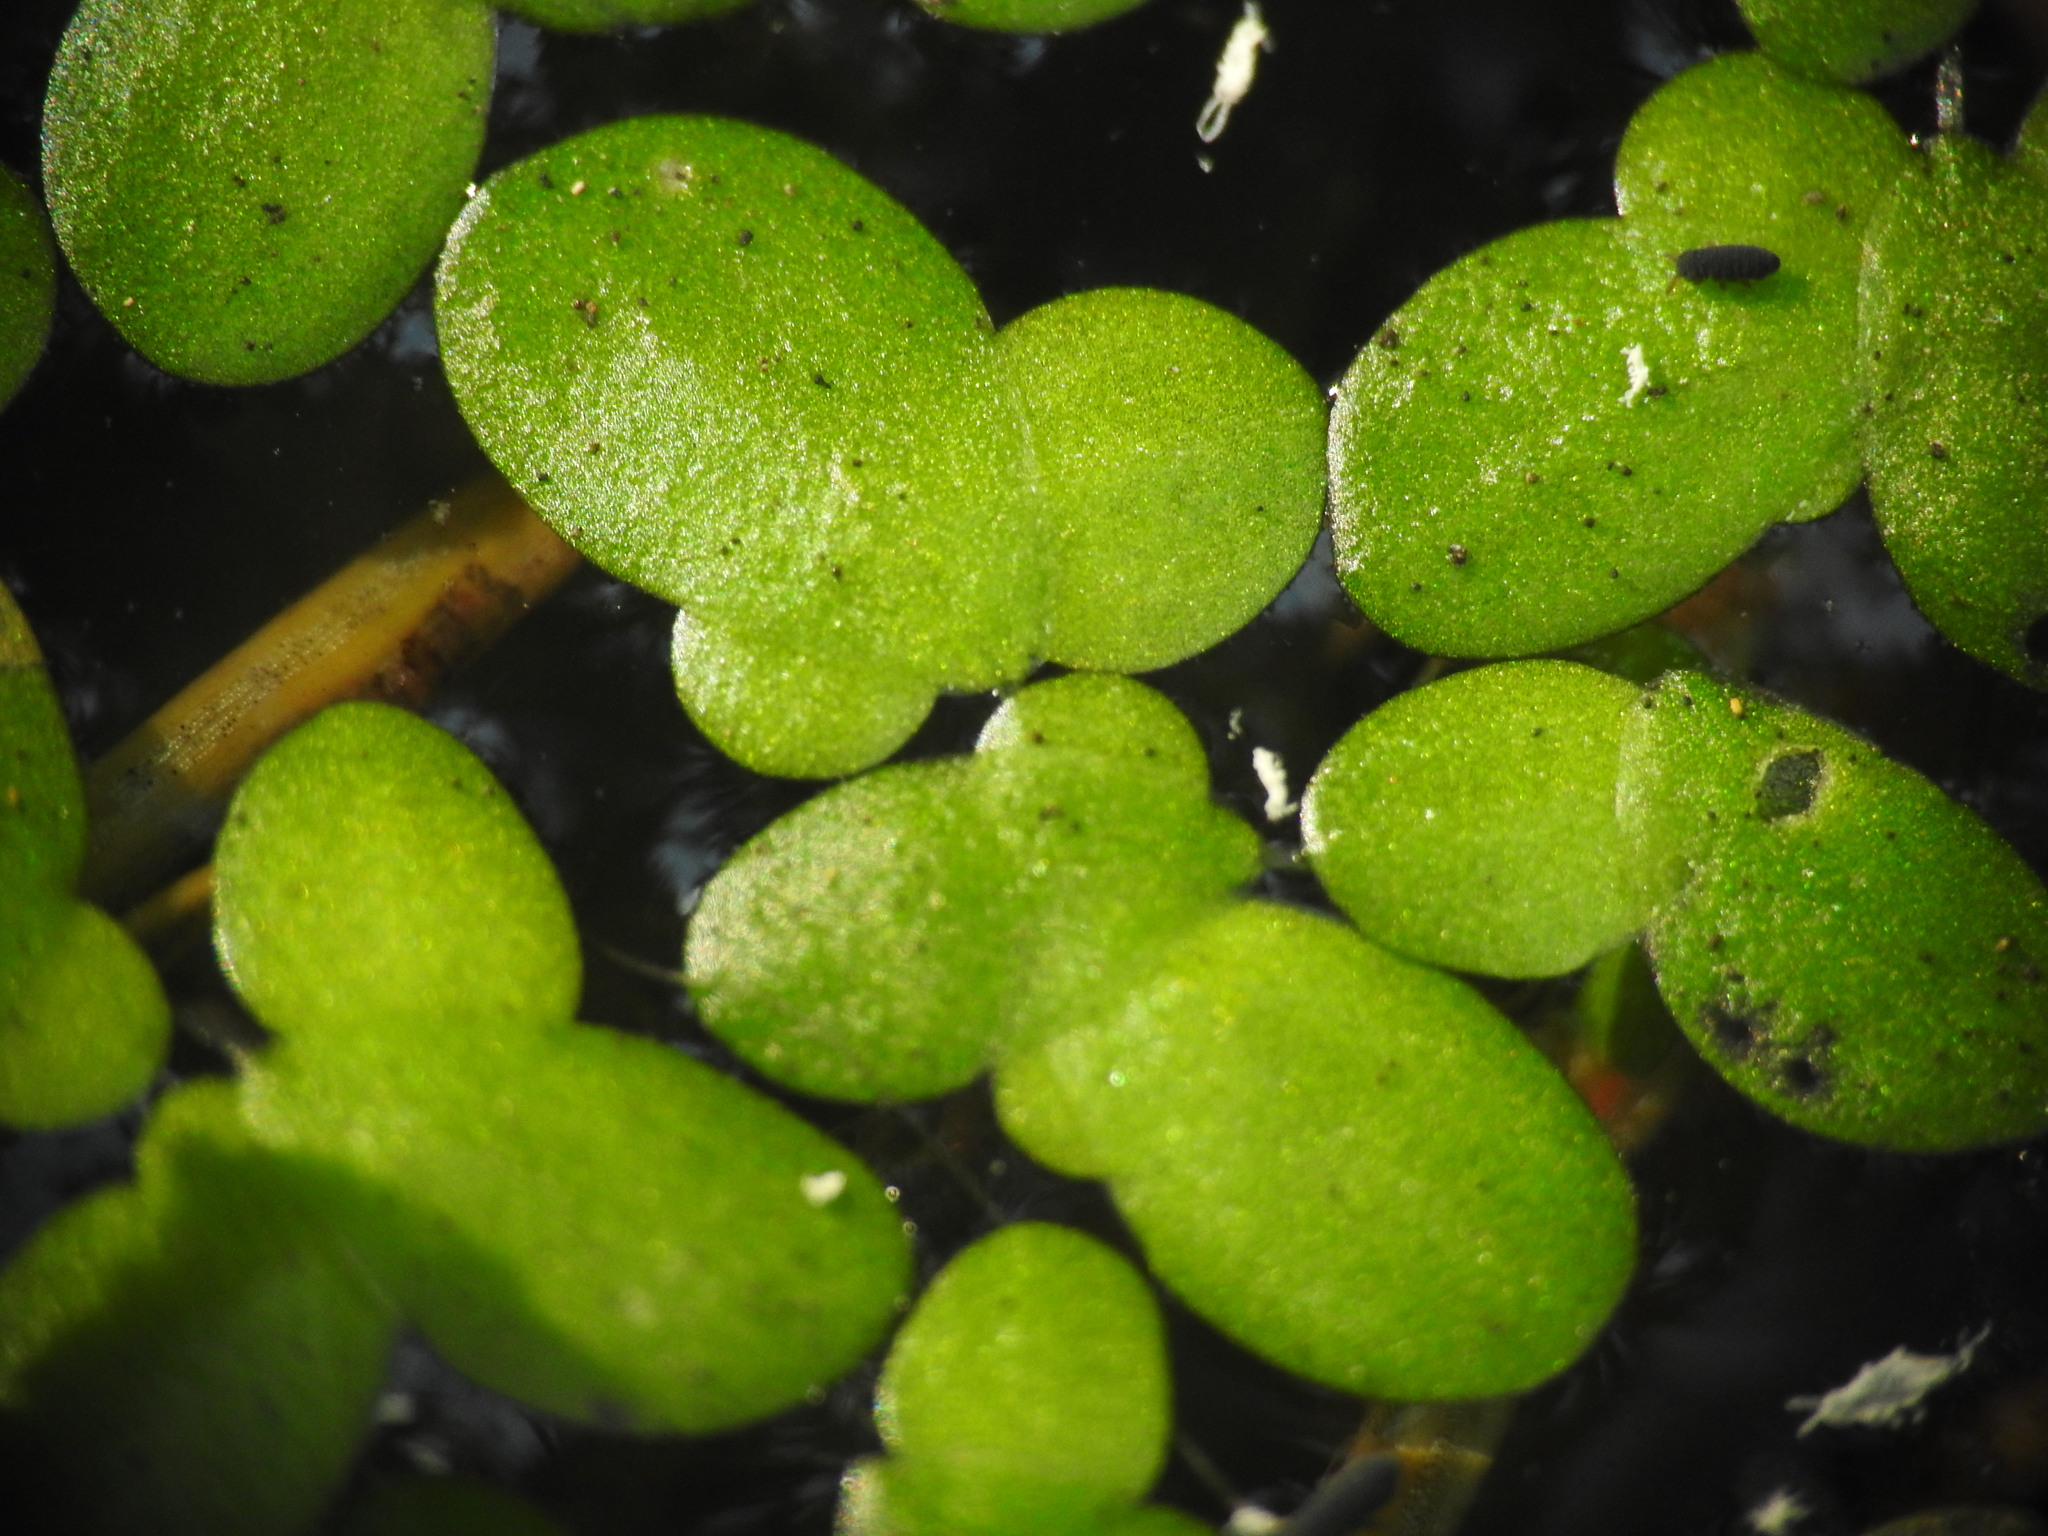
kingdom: Plantae
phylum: Tracheophyta
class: Liliopsida
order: Alismatales
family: Araceae
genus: Lemna
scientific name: Lemna minor
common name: Common duckweed
